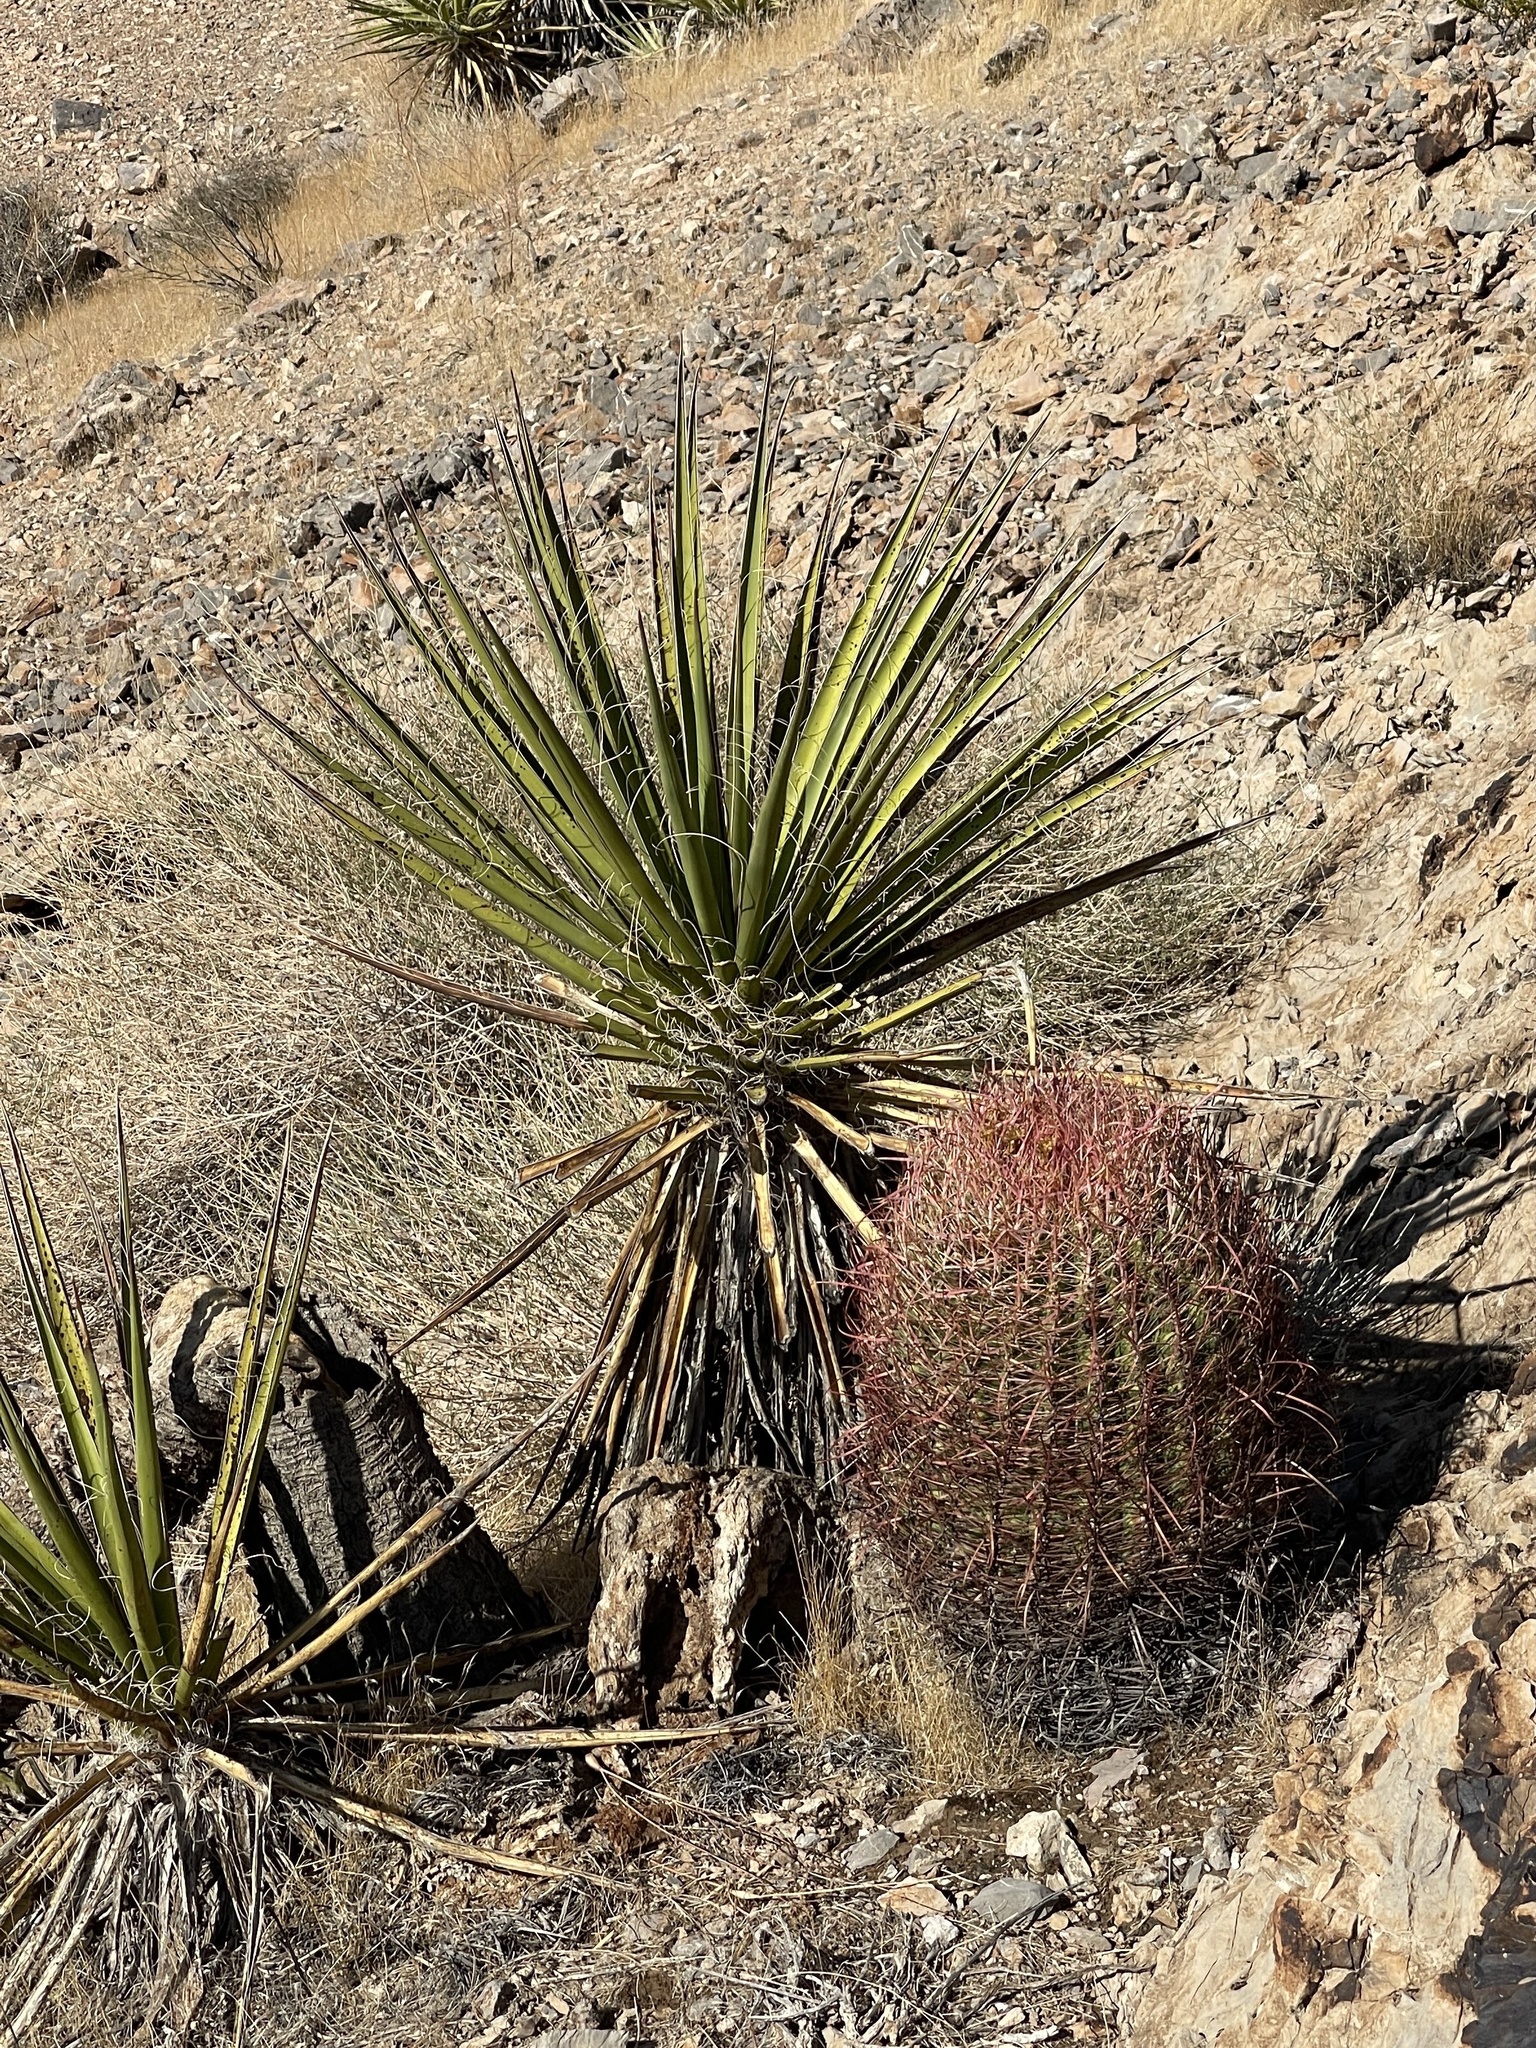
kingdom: Plantae
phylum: Tracheophyta
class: Liliopsida
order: Asparagales
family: Asparagaceae
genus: Yucca
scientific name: Yucca schidigera
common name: Mojave yucca
